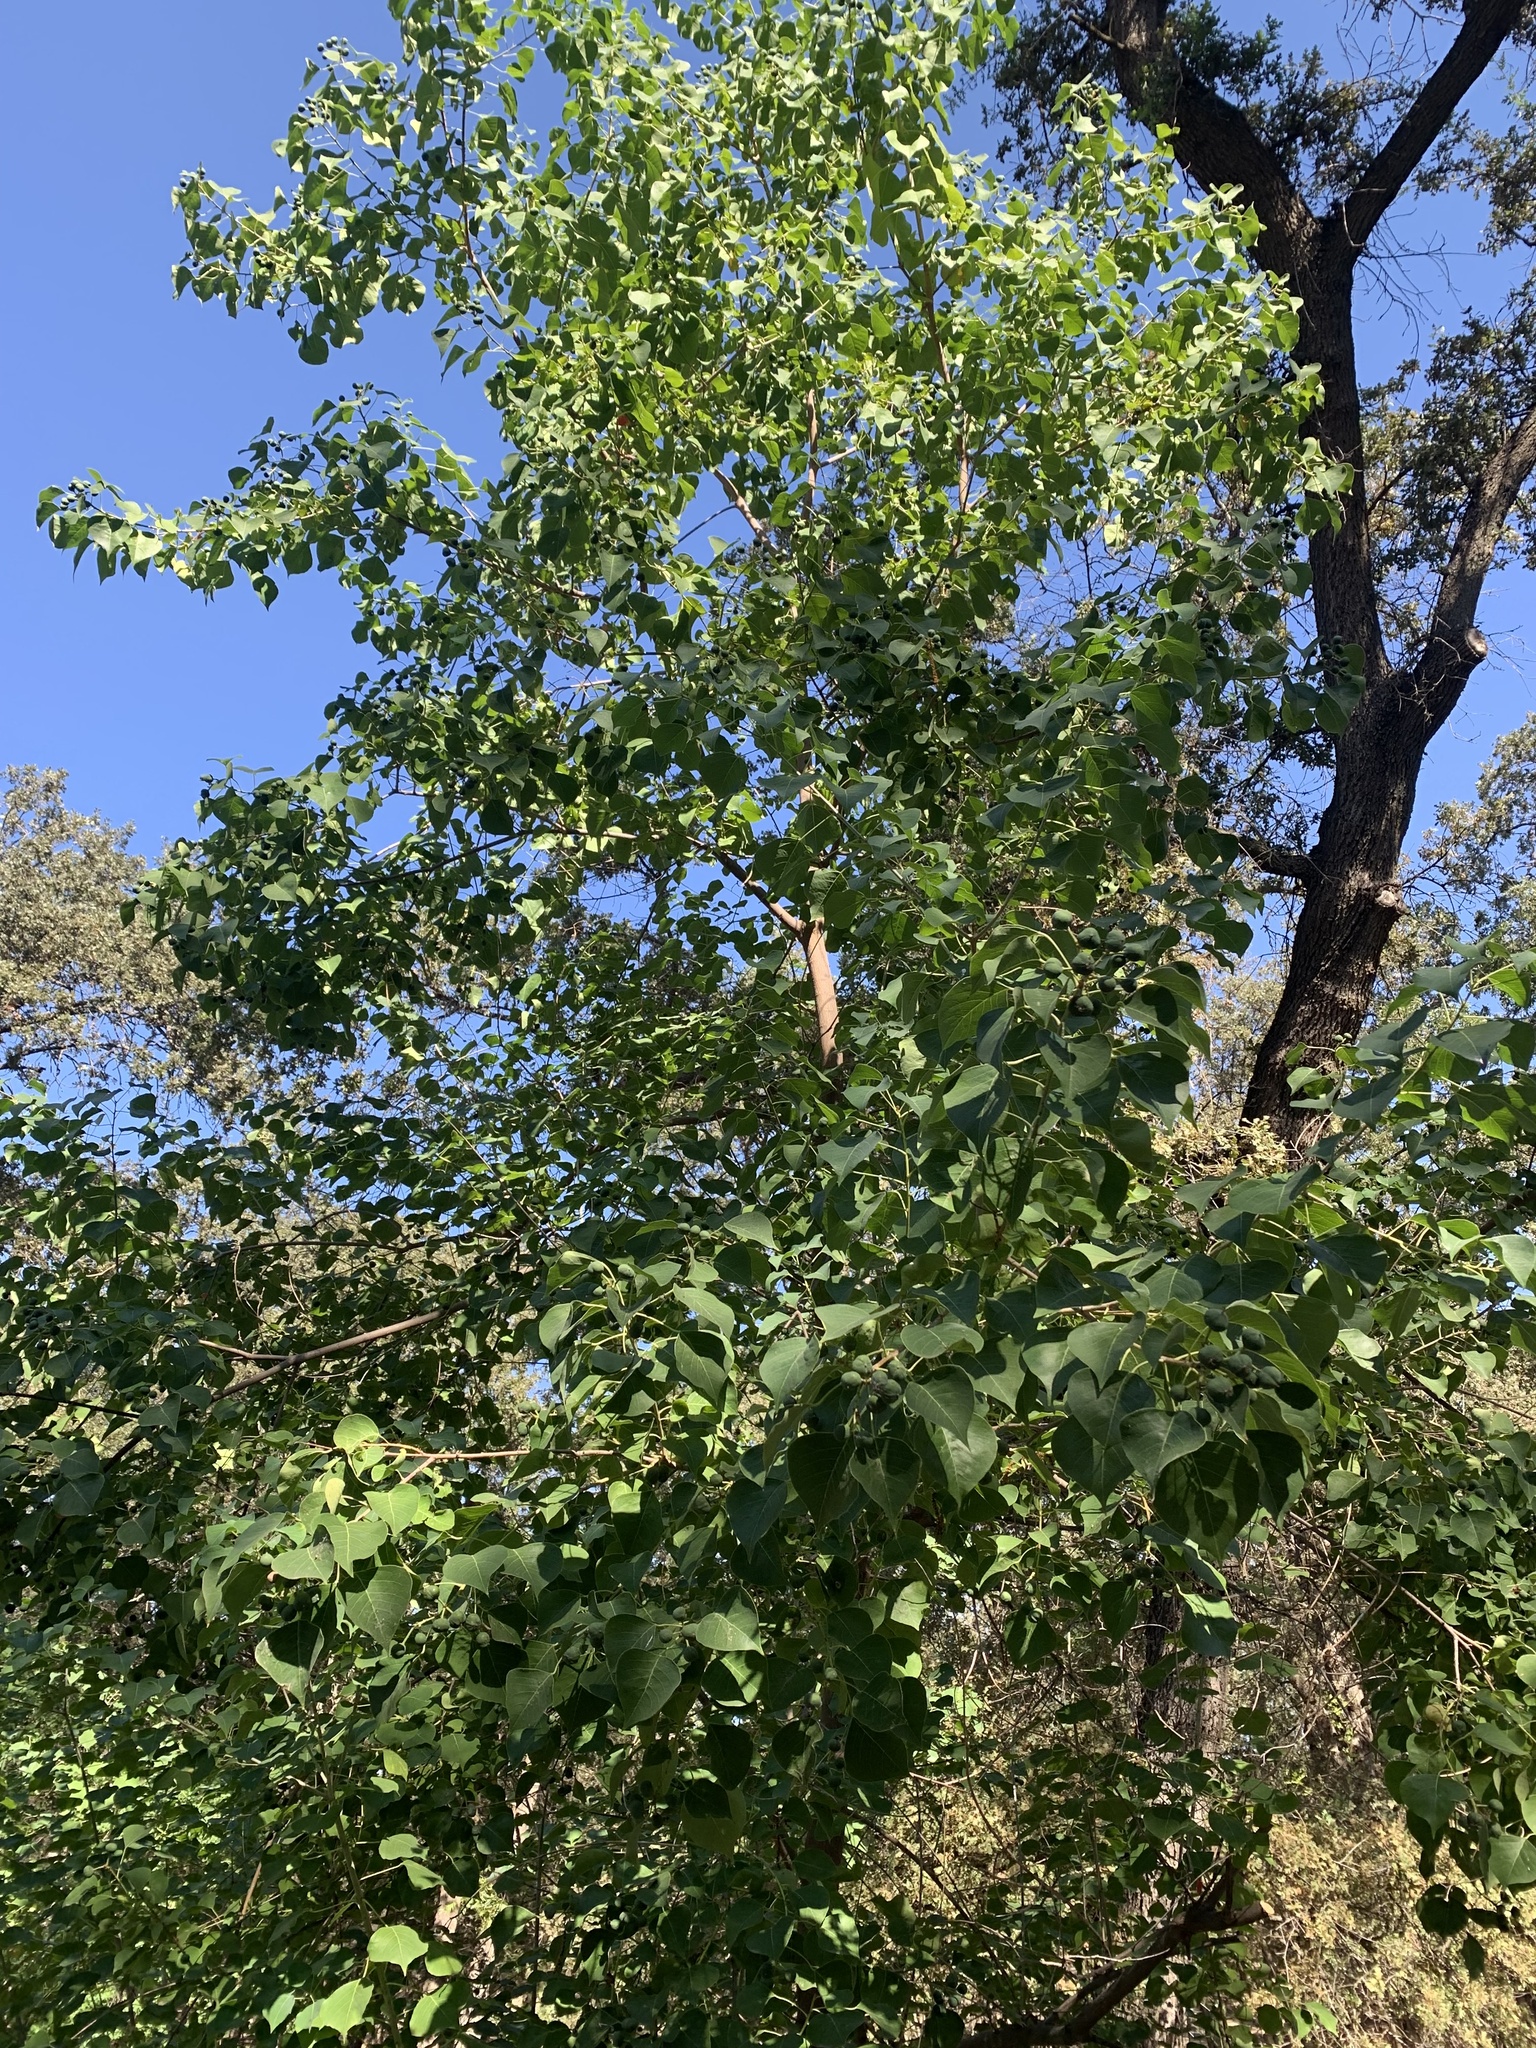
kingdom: Plantae
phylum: Tracheophyta
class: Magnoliopsida
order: Malpighiales
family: Euphorbiaceae
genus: Triadica
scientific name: Triadica sebifera
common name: Chinese tallow
